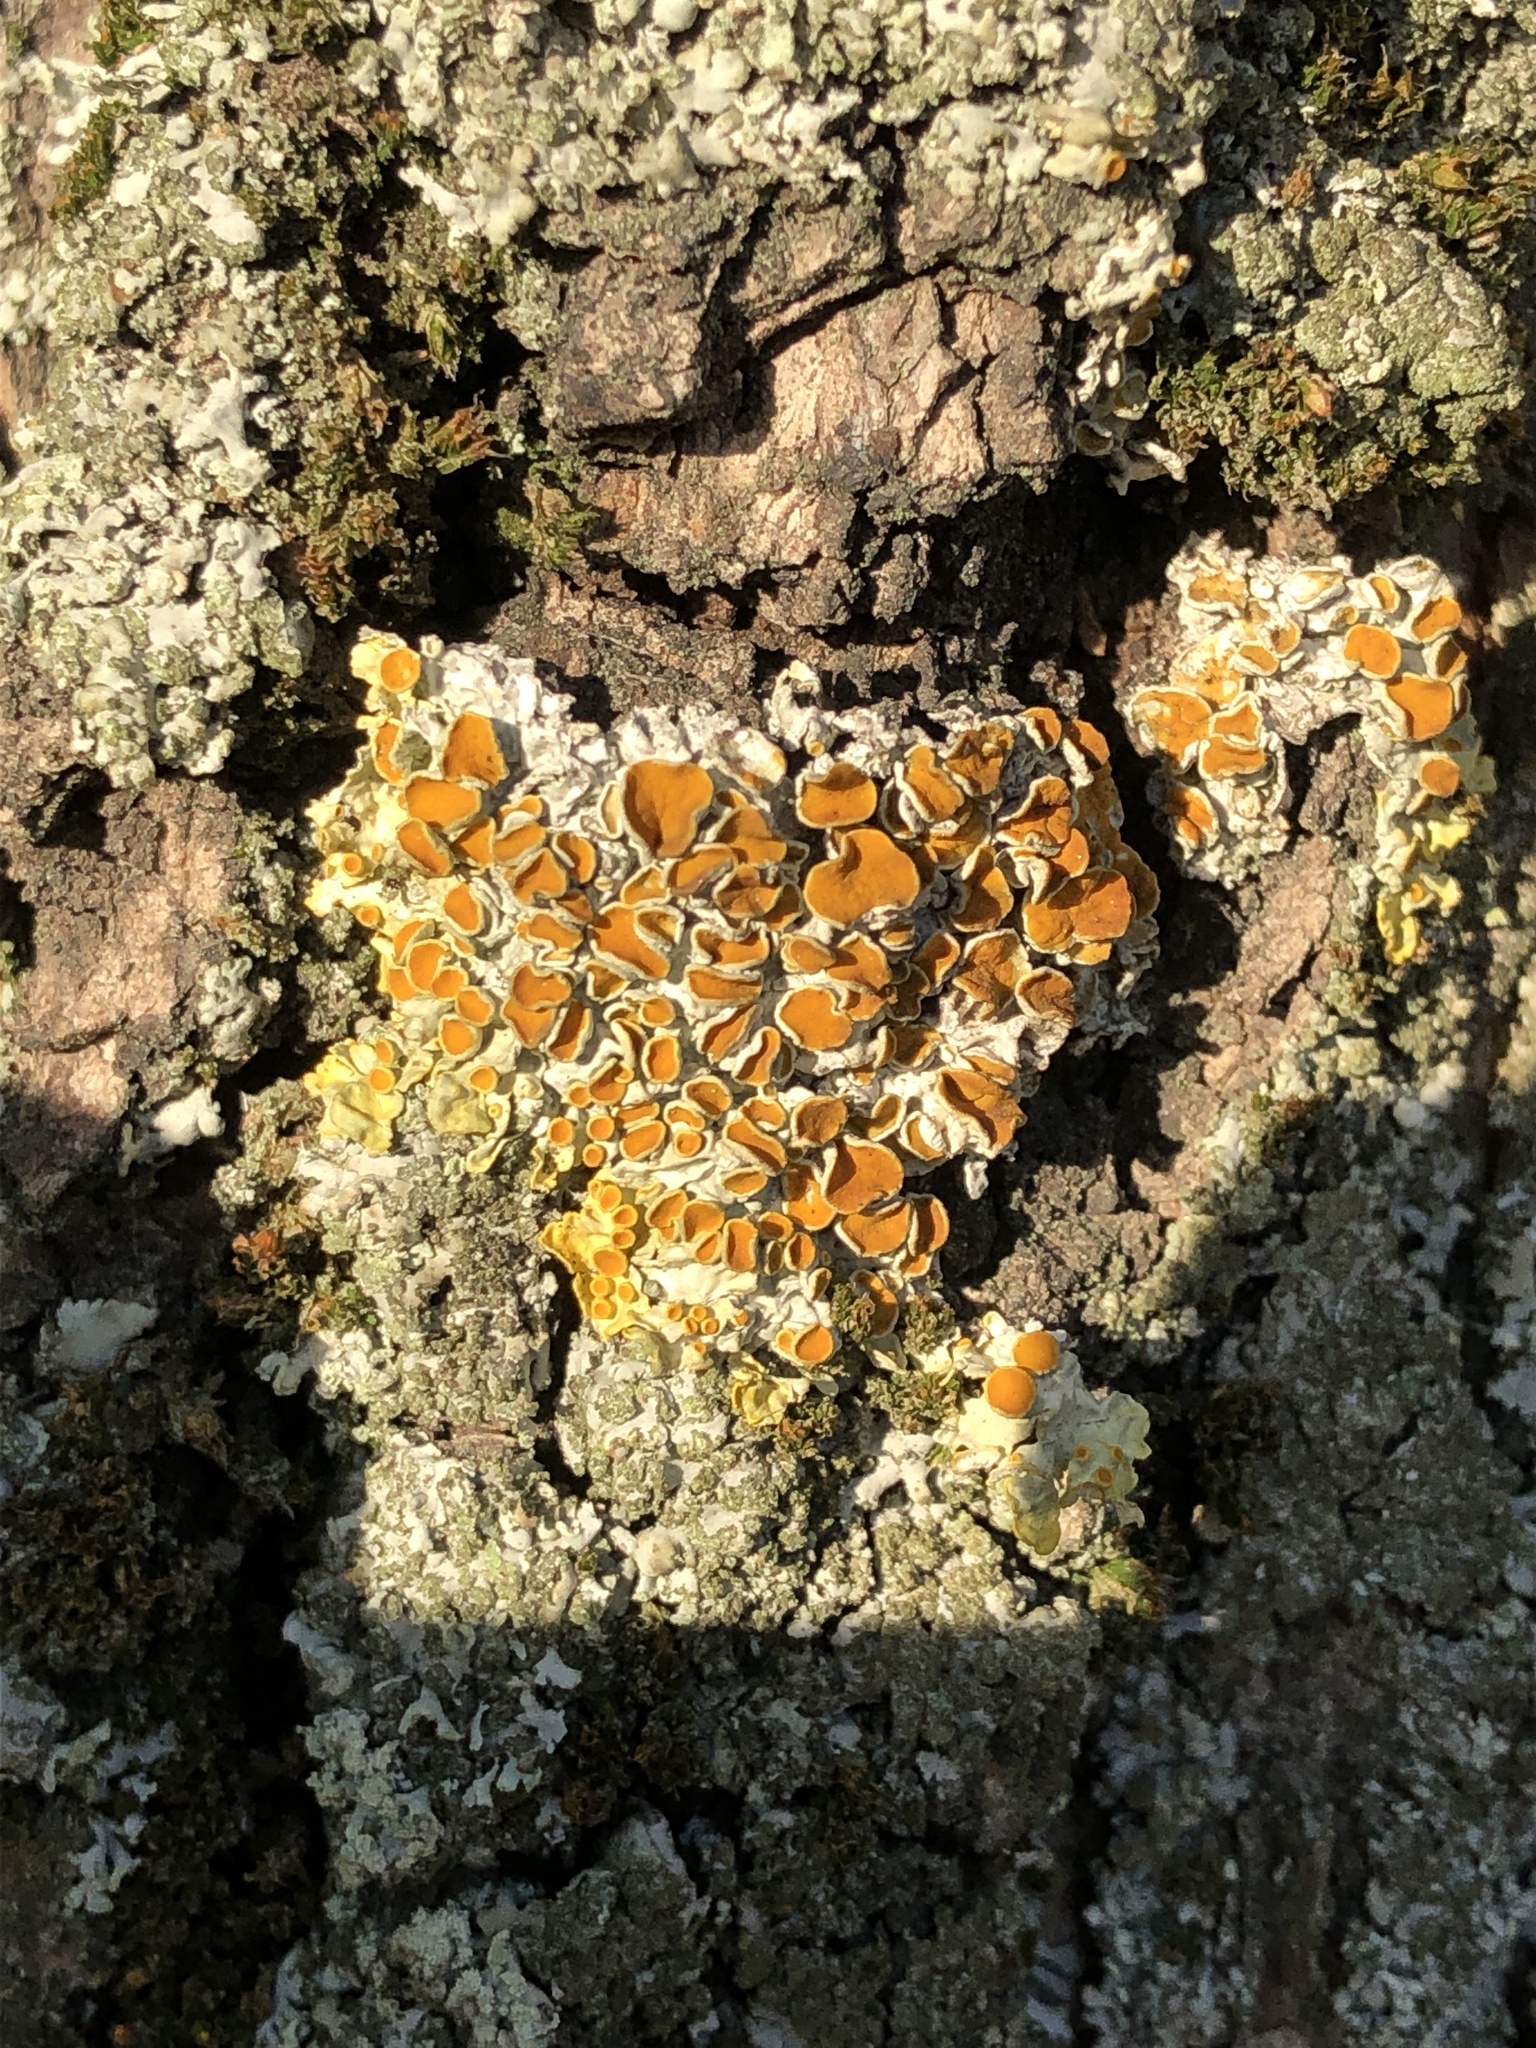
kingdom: Fungi
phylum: Ascomycota
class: Lecanoromycetes
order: Teloschistales
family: Teloschistaceae
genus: Xanthoria
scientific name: Xanthoria parietina
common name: Common orange lichen
